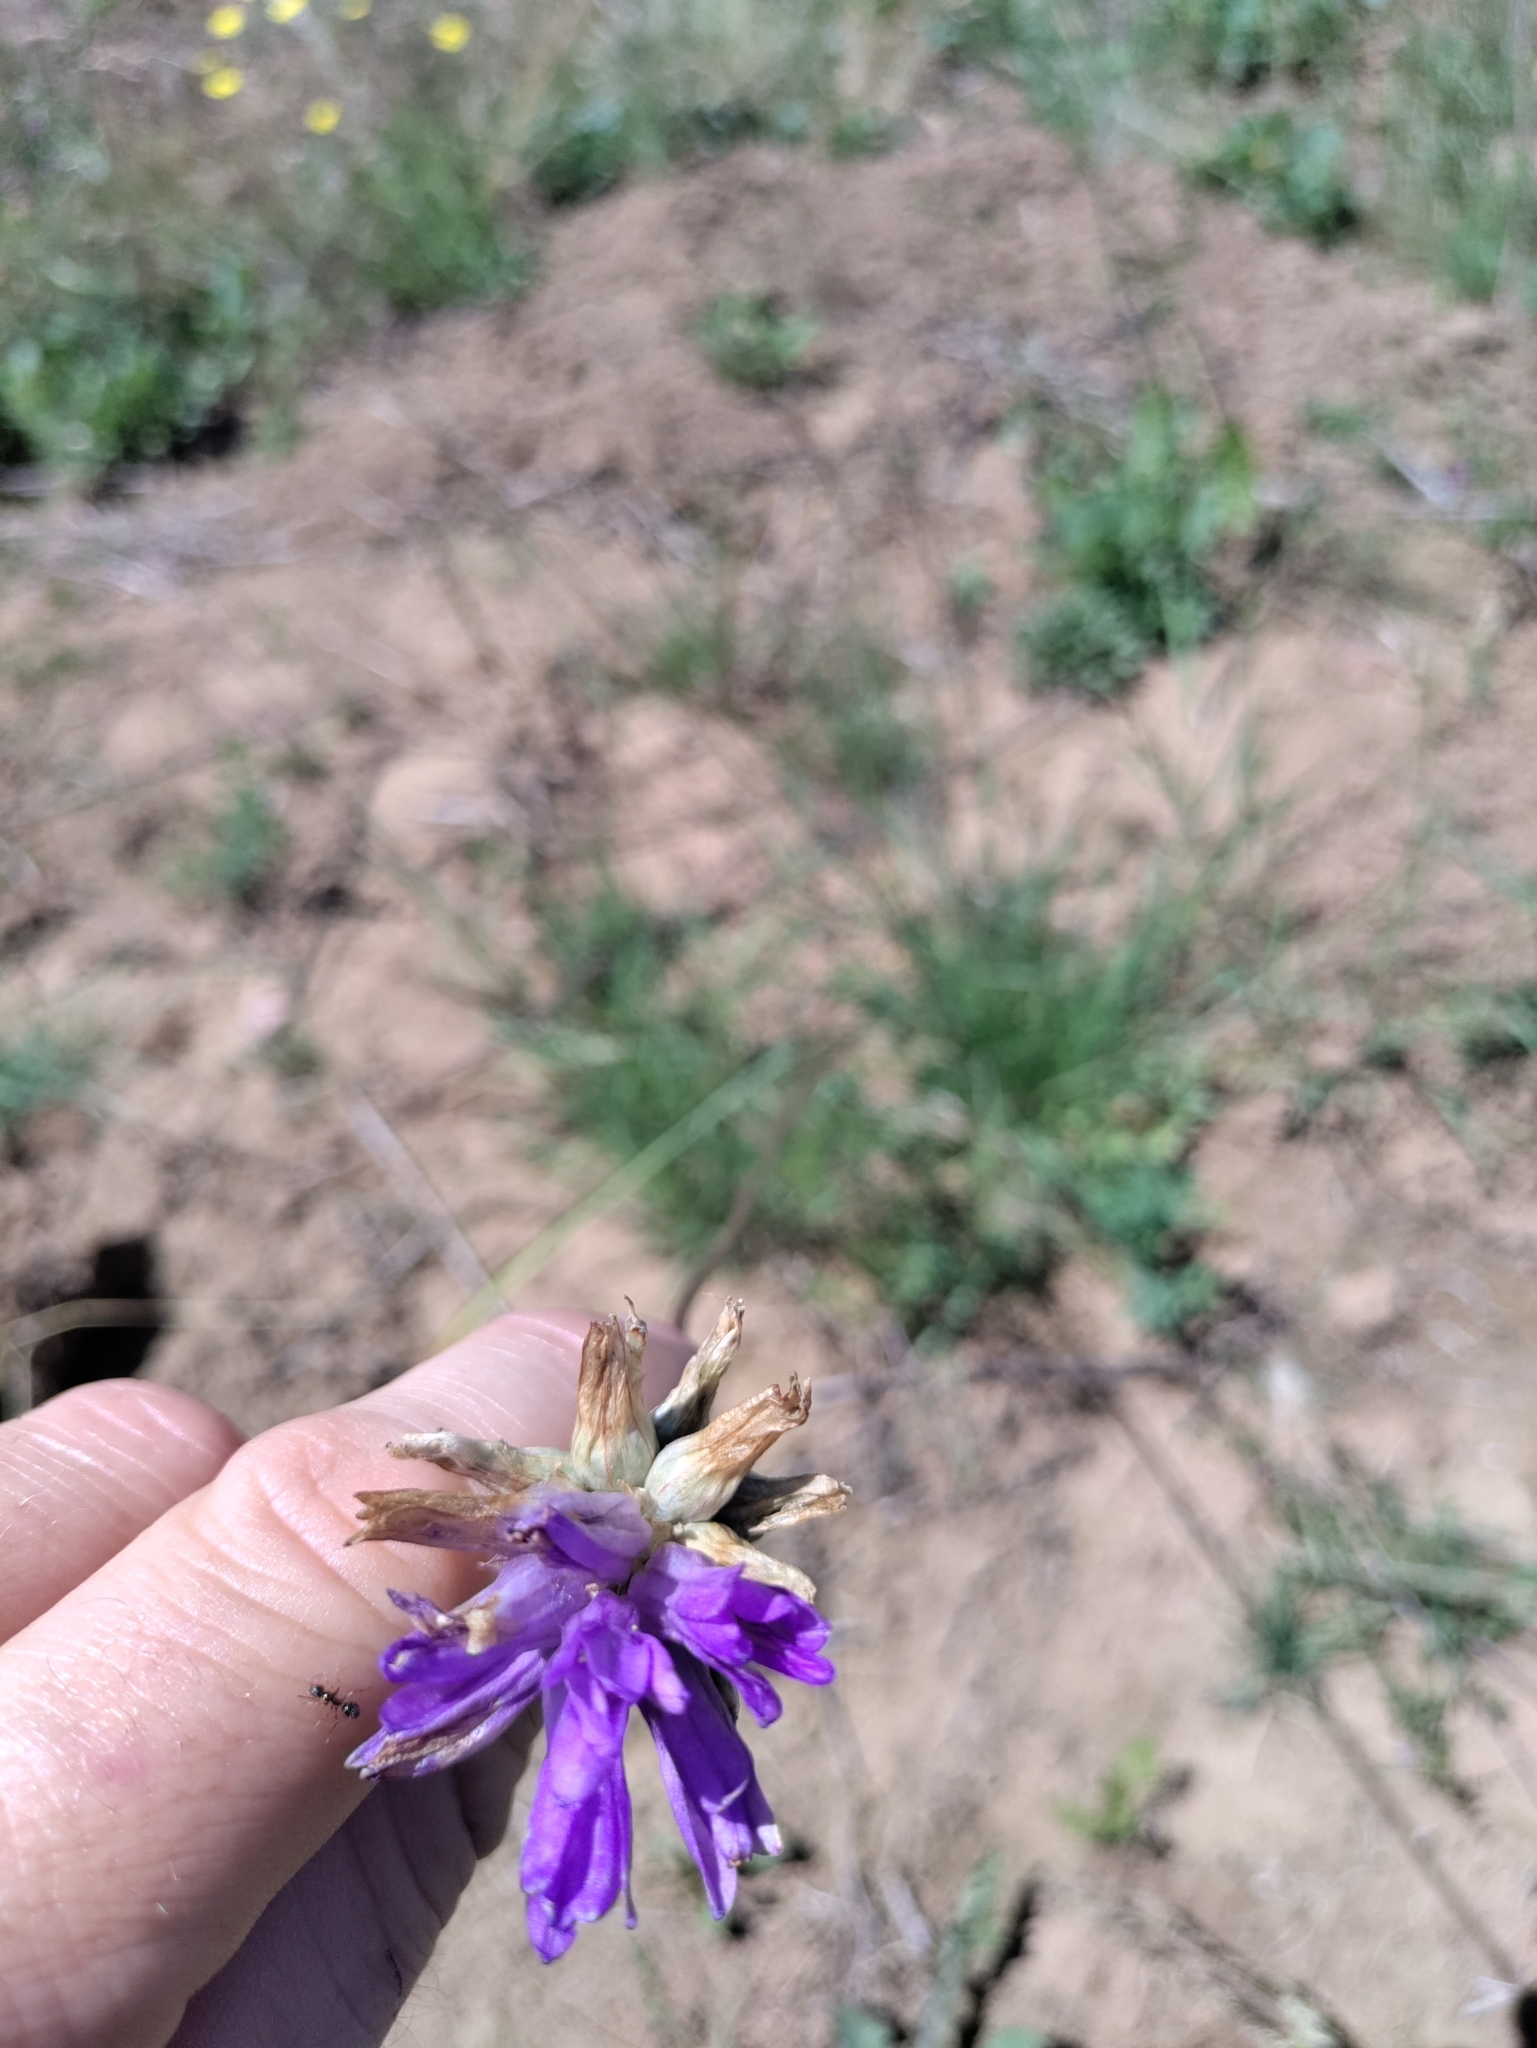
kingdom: Plantae
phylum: Tracheophyta
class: Liliopsida
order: Asparagales
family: Asparagaceae
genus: Dichelostemma
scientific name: Dichelostemma congestum
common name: Fork-tooth ookow
